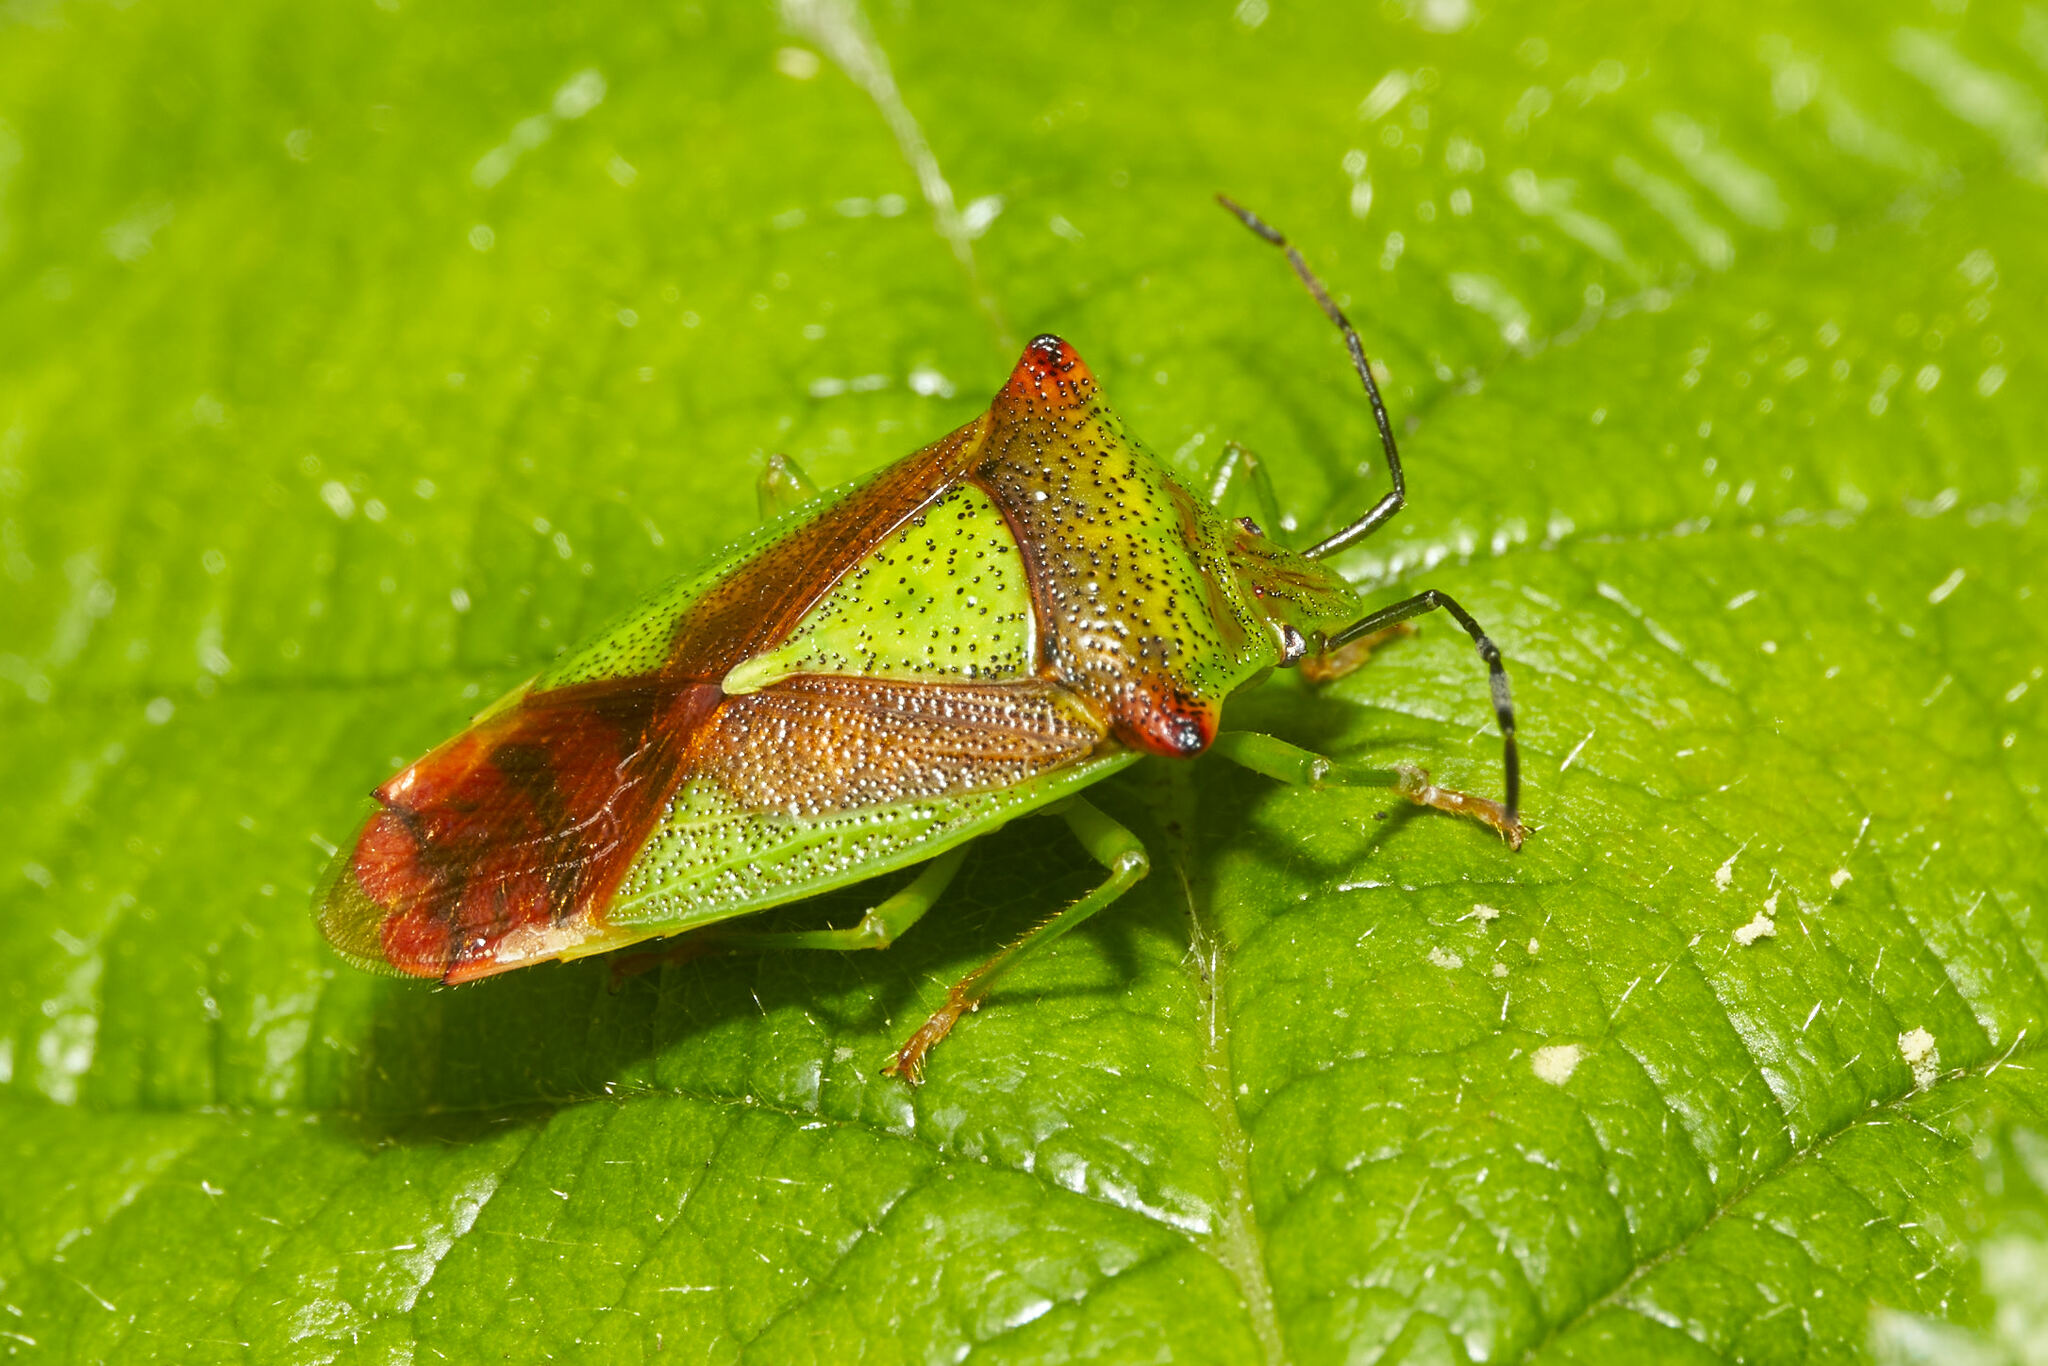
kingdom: Animalia
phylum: Arthropoda
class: Insecta
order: Hemiptera
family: Acanthosomatidae
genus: Acanthosoma
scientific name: Acanthosoma haemorrhoidale
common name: Hawthorn shieldbug
